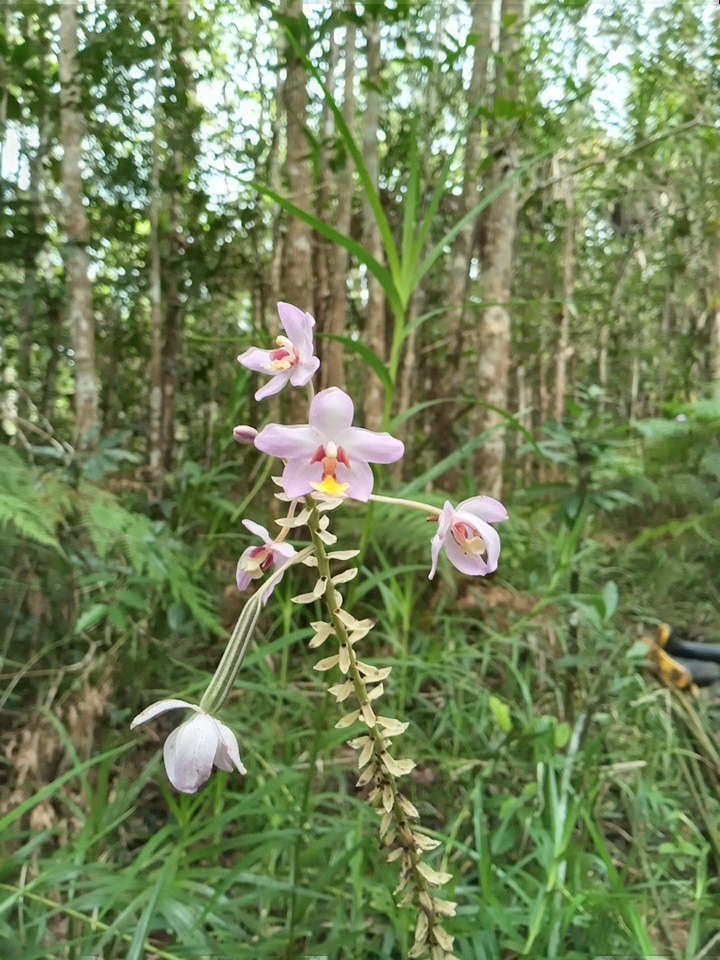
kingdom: Plantae
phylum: Tracheophyta
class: Liliopsida
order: Asparagales
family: Orchidaceae
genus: Spathoglottis
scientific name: Spathoglottis pacifica
